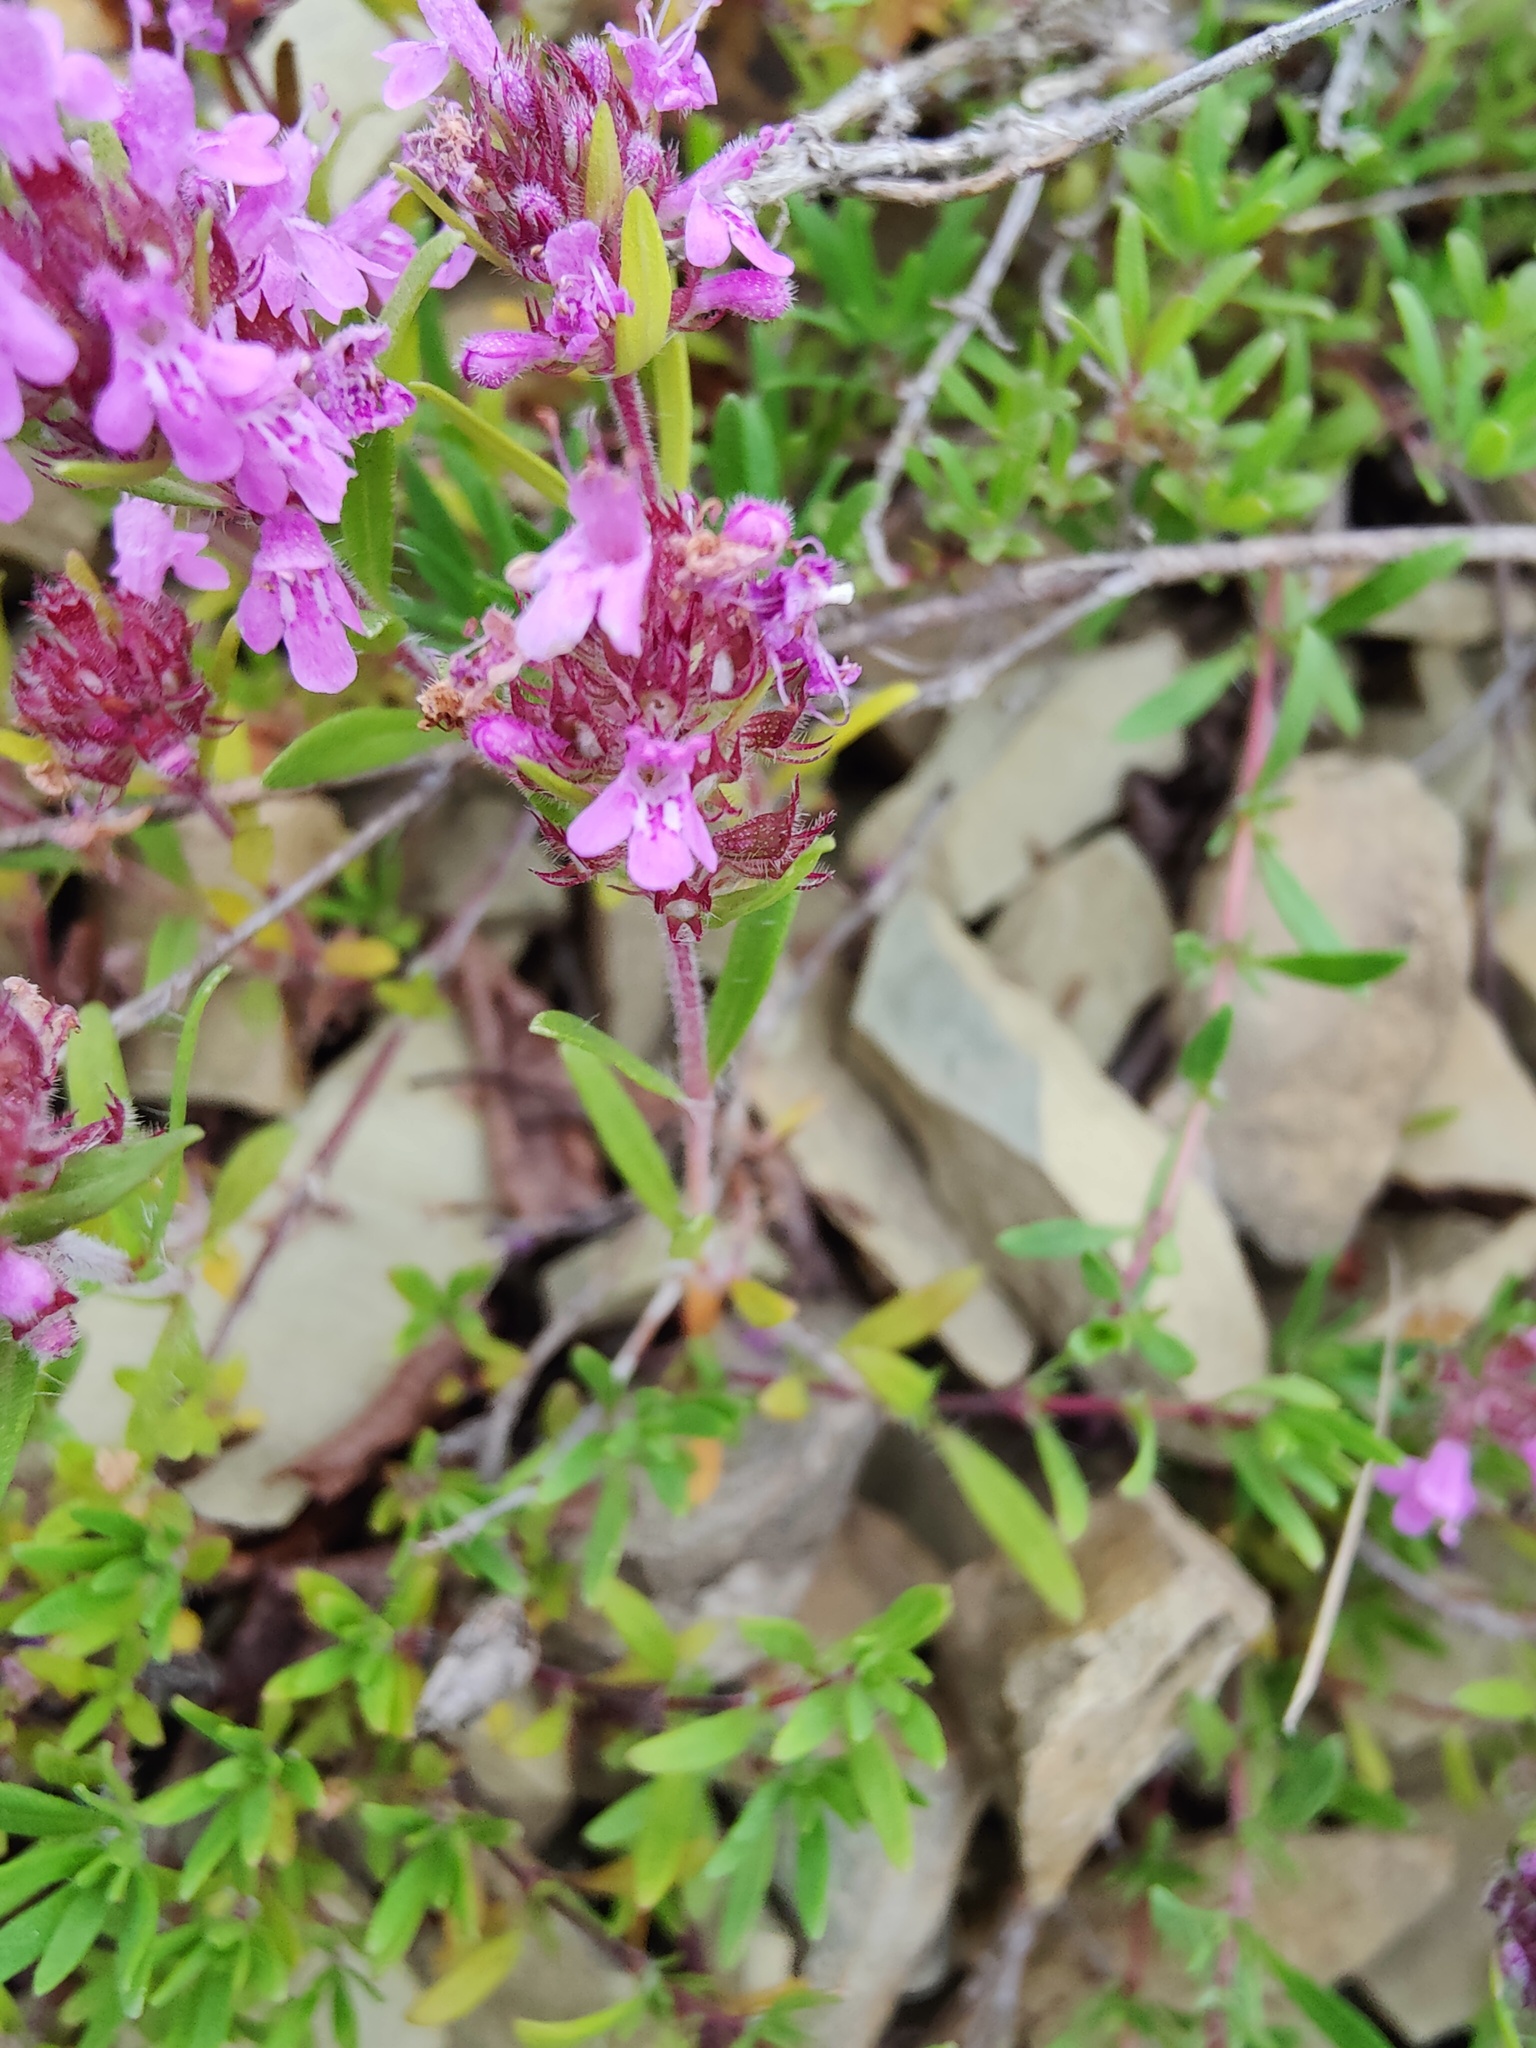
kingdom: Plantae
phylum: Tracheophyta
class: Magnoliopsida
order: Lamiales
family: Lamiaceae
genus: Thymus
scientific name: Thymus dimorphus
